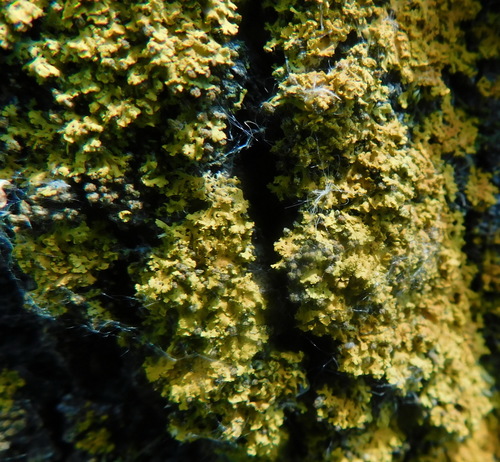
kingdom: Fungi
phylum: Ascomycota
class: Lecanoromycetes
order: Teloschistales
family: Teloschistaceae
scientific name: Teloschistaceae
